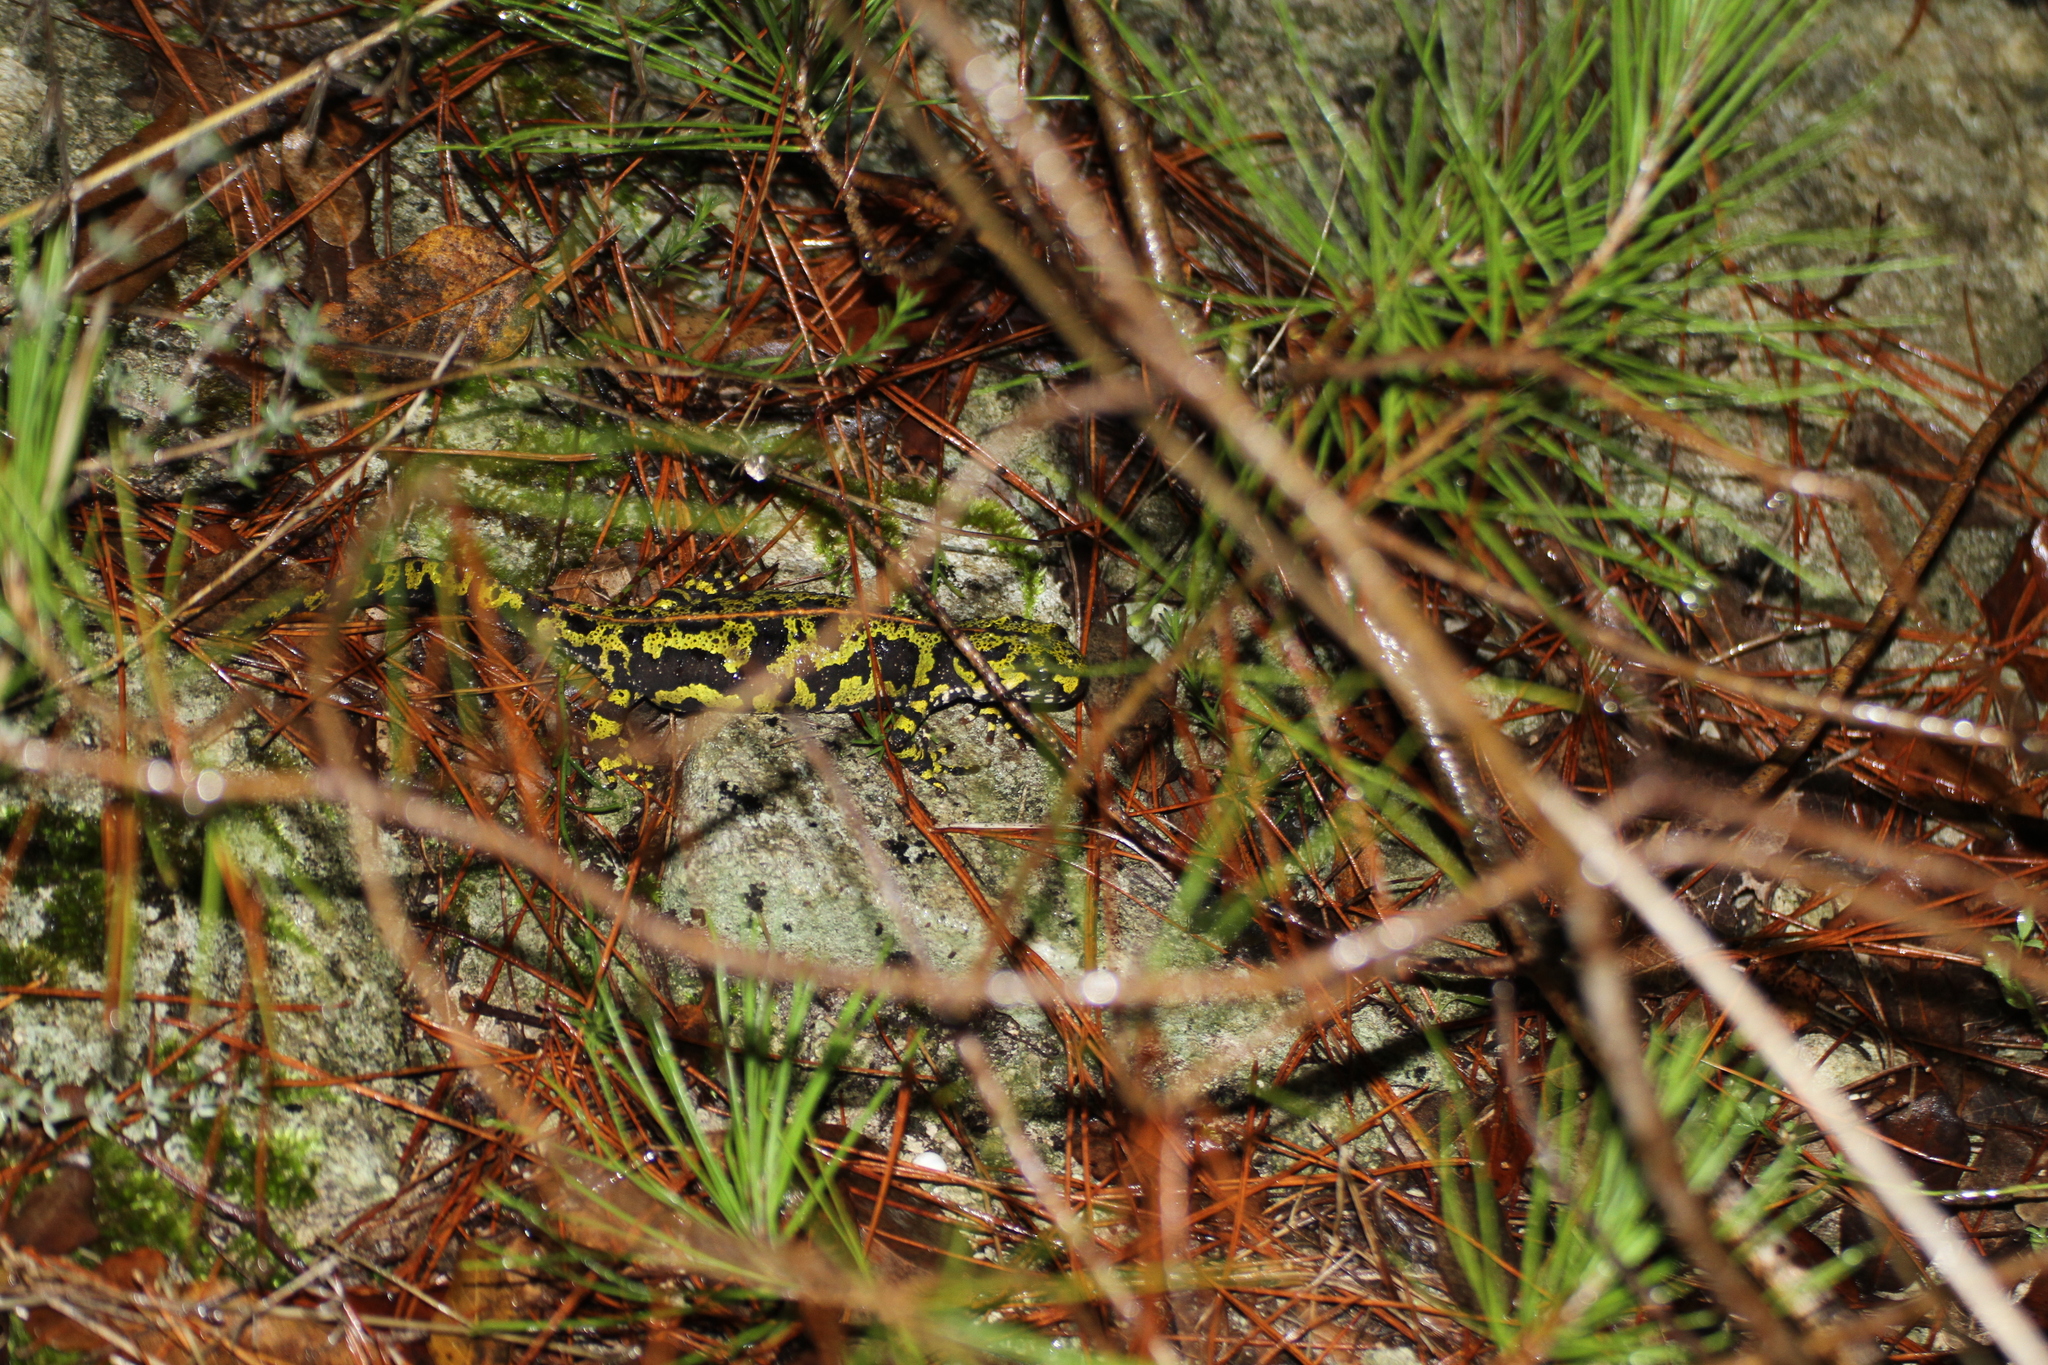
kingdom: Animalia
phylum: Chordata
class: Amphibia
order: Caudata
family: Salamandridae
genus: Triturus
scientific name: Triturus marmoratus
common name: Marbled newt
